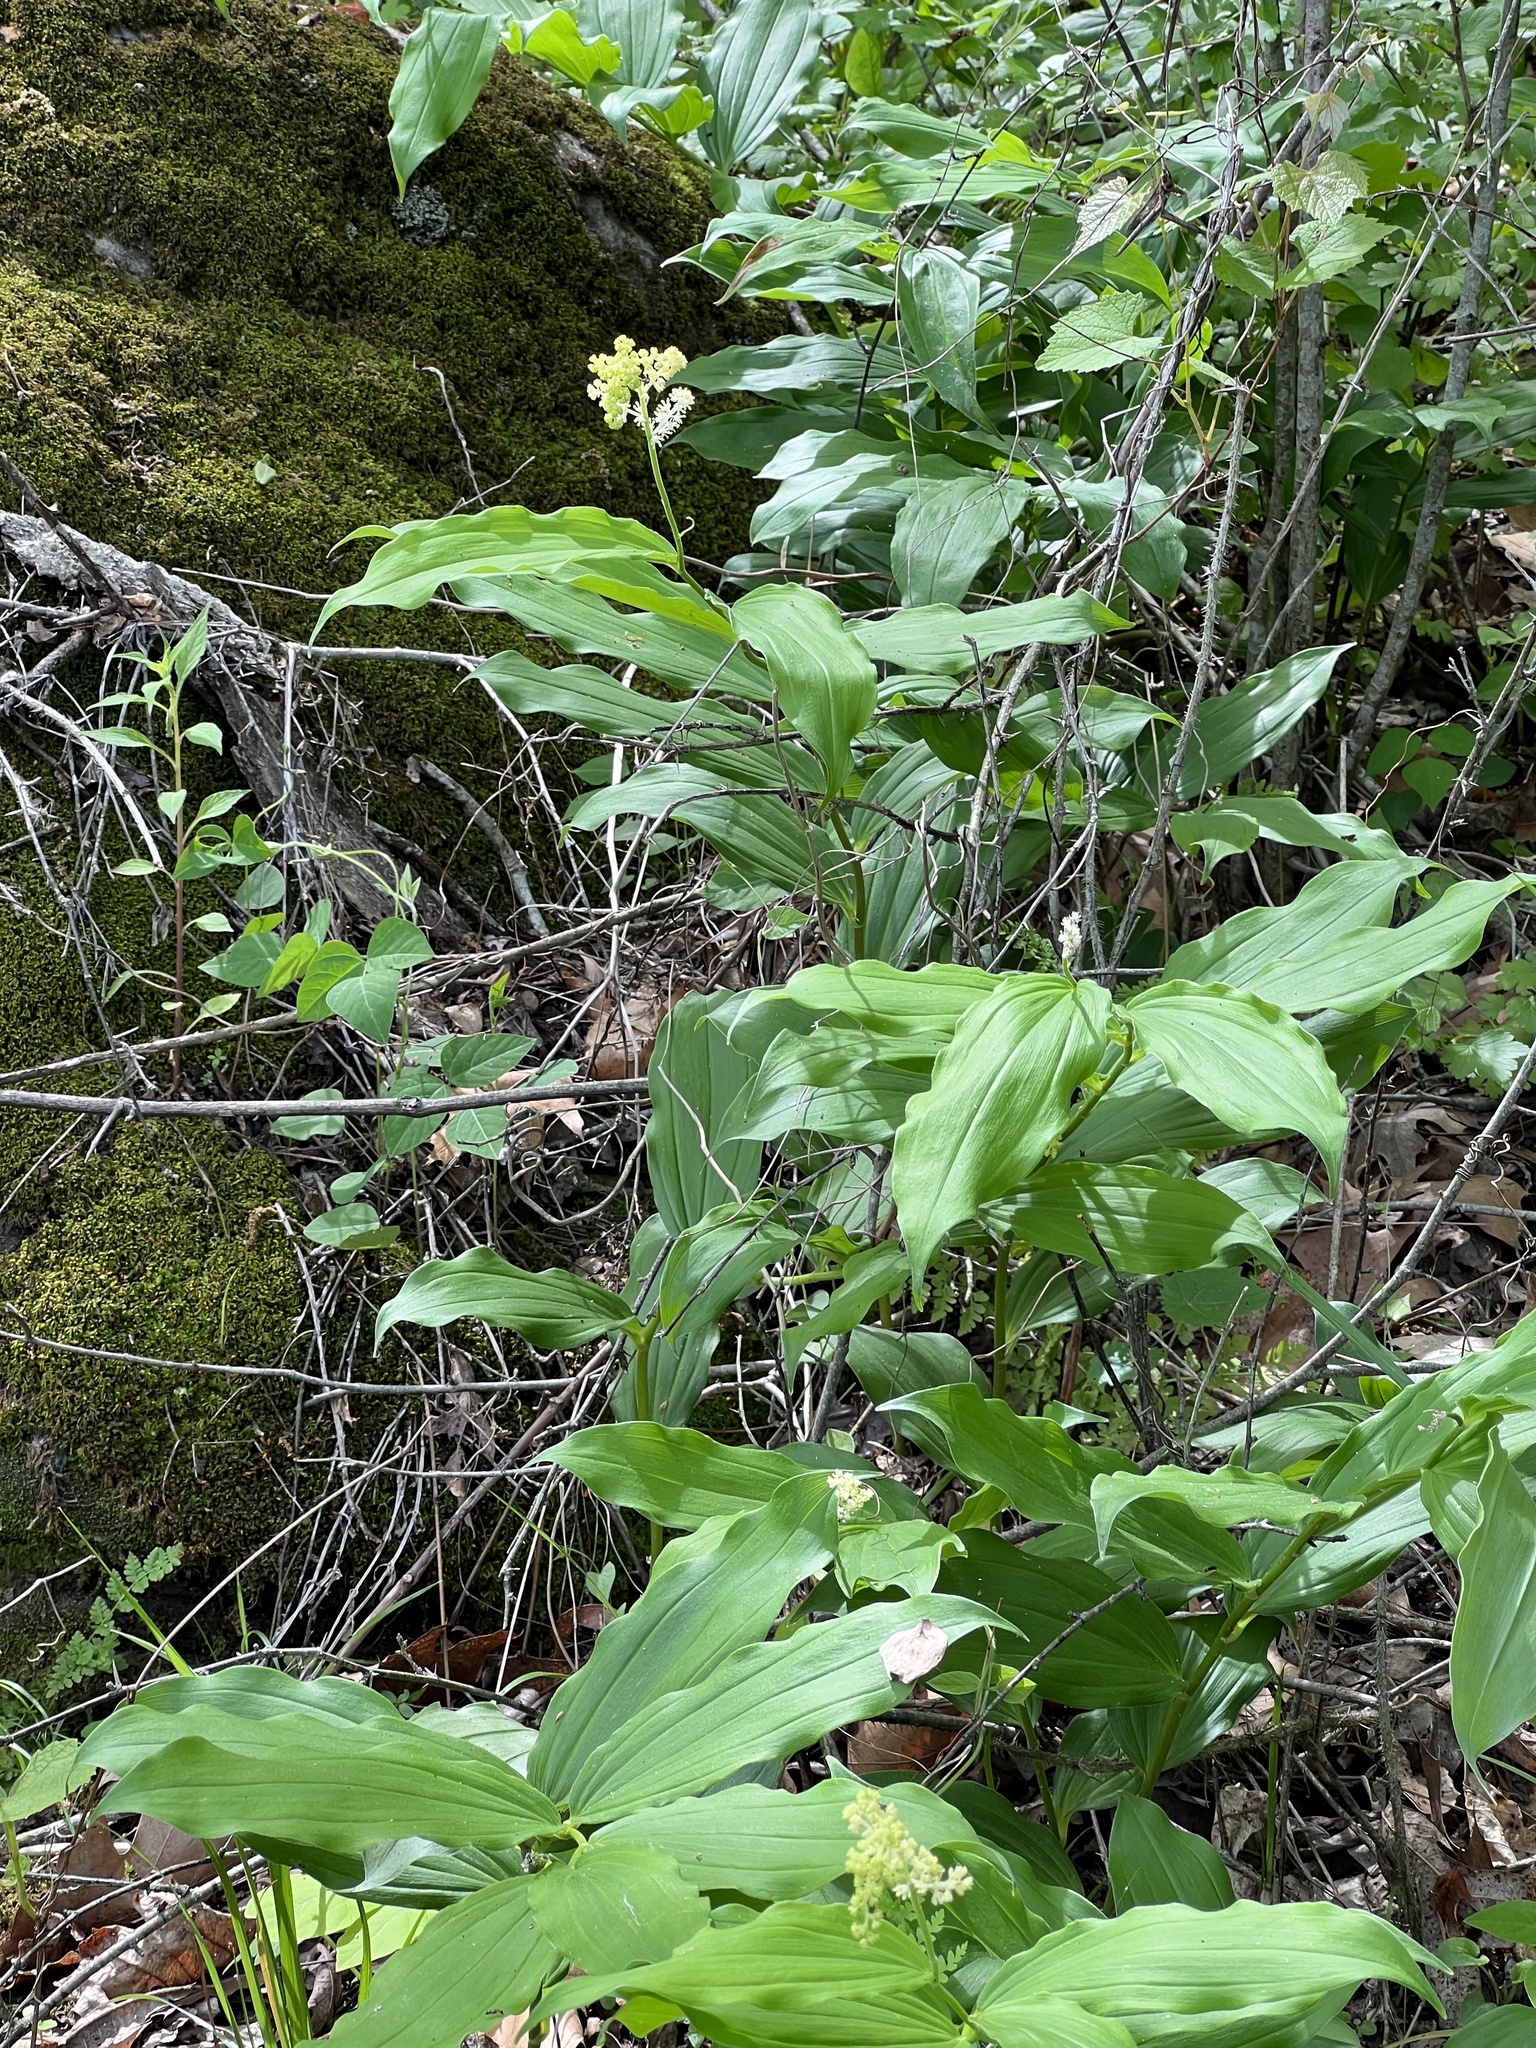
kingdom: Plantae
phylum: Tracheophyta
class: Liliopsida
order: Asparagales
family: Asparagaceae
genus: Maianthemum
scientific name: Maianthemum racemosum
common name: False spikenard
